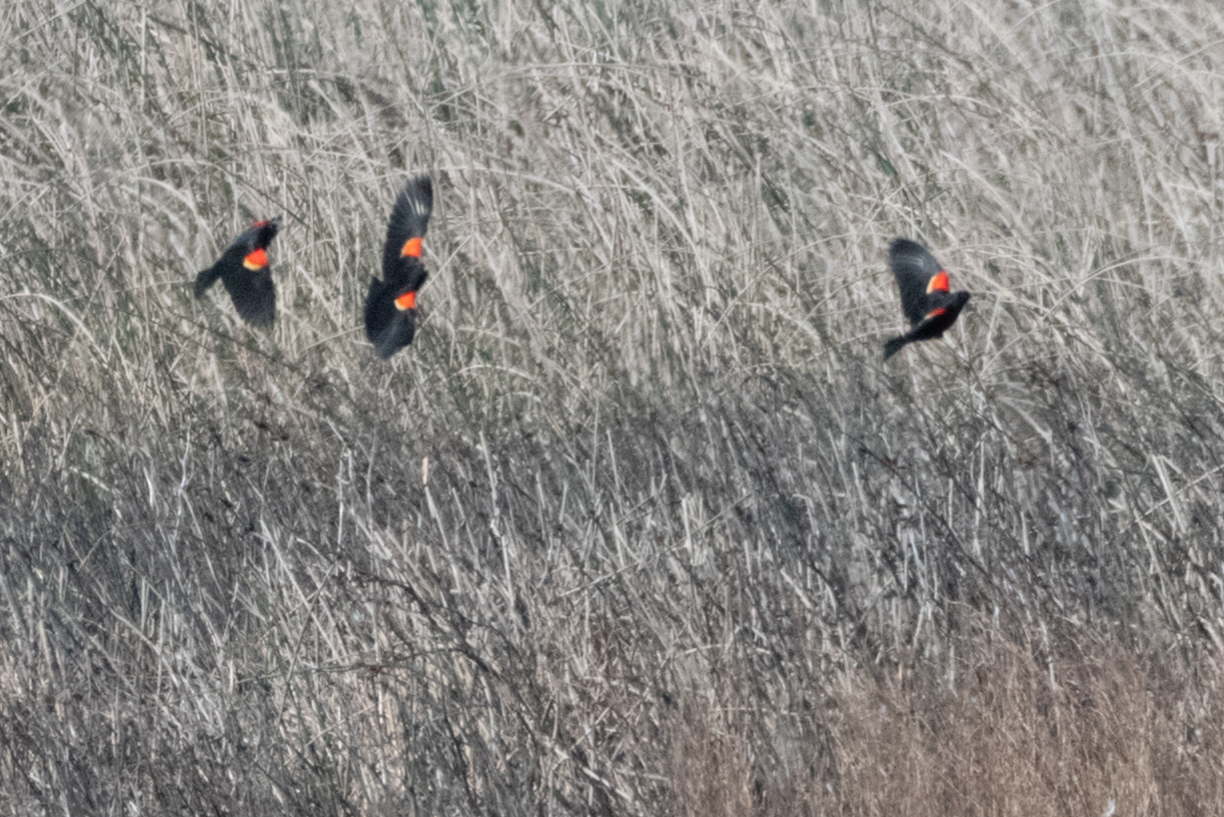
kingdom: Animalia
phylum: Chordata
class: Aves
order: Passeriformes
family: Icteridae
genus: Agelaius
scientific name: Agelaius phoeniceus
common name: Red-winged blackbird
